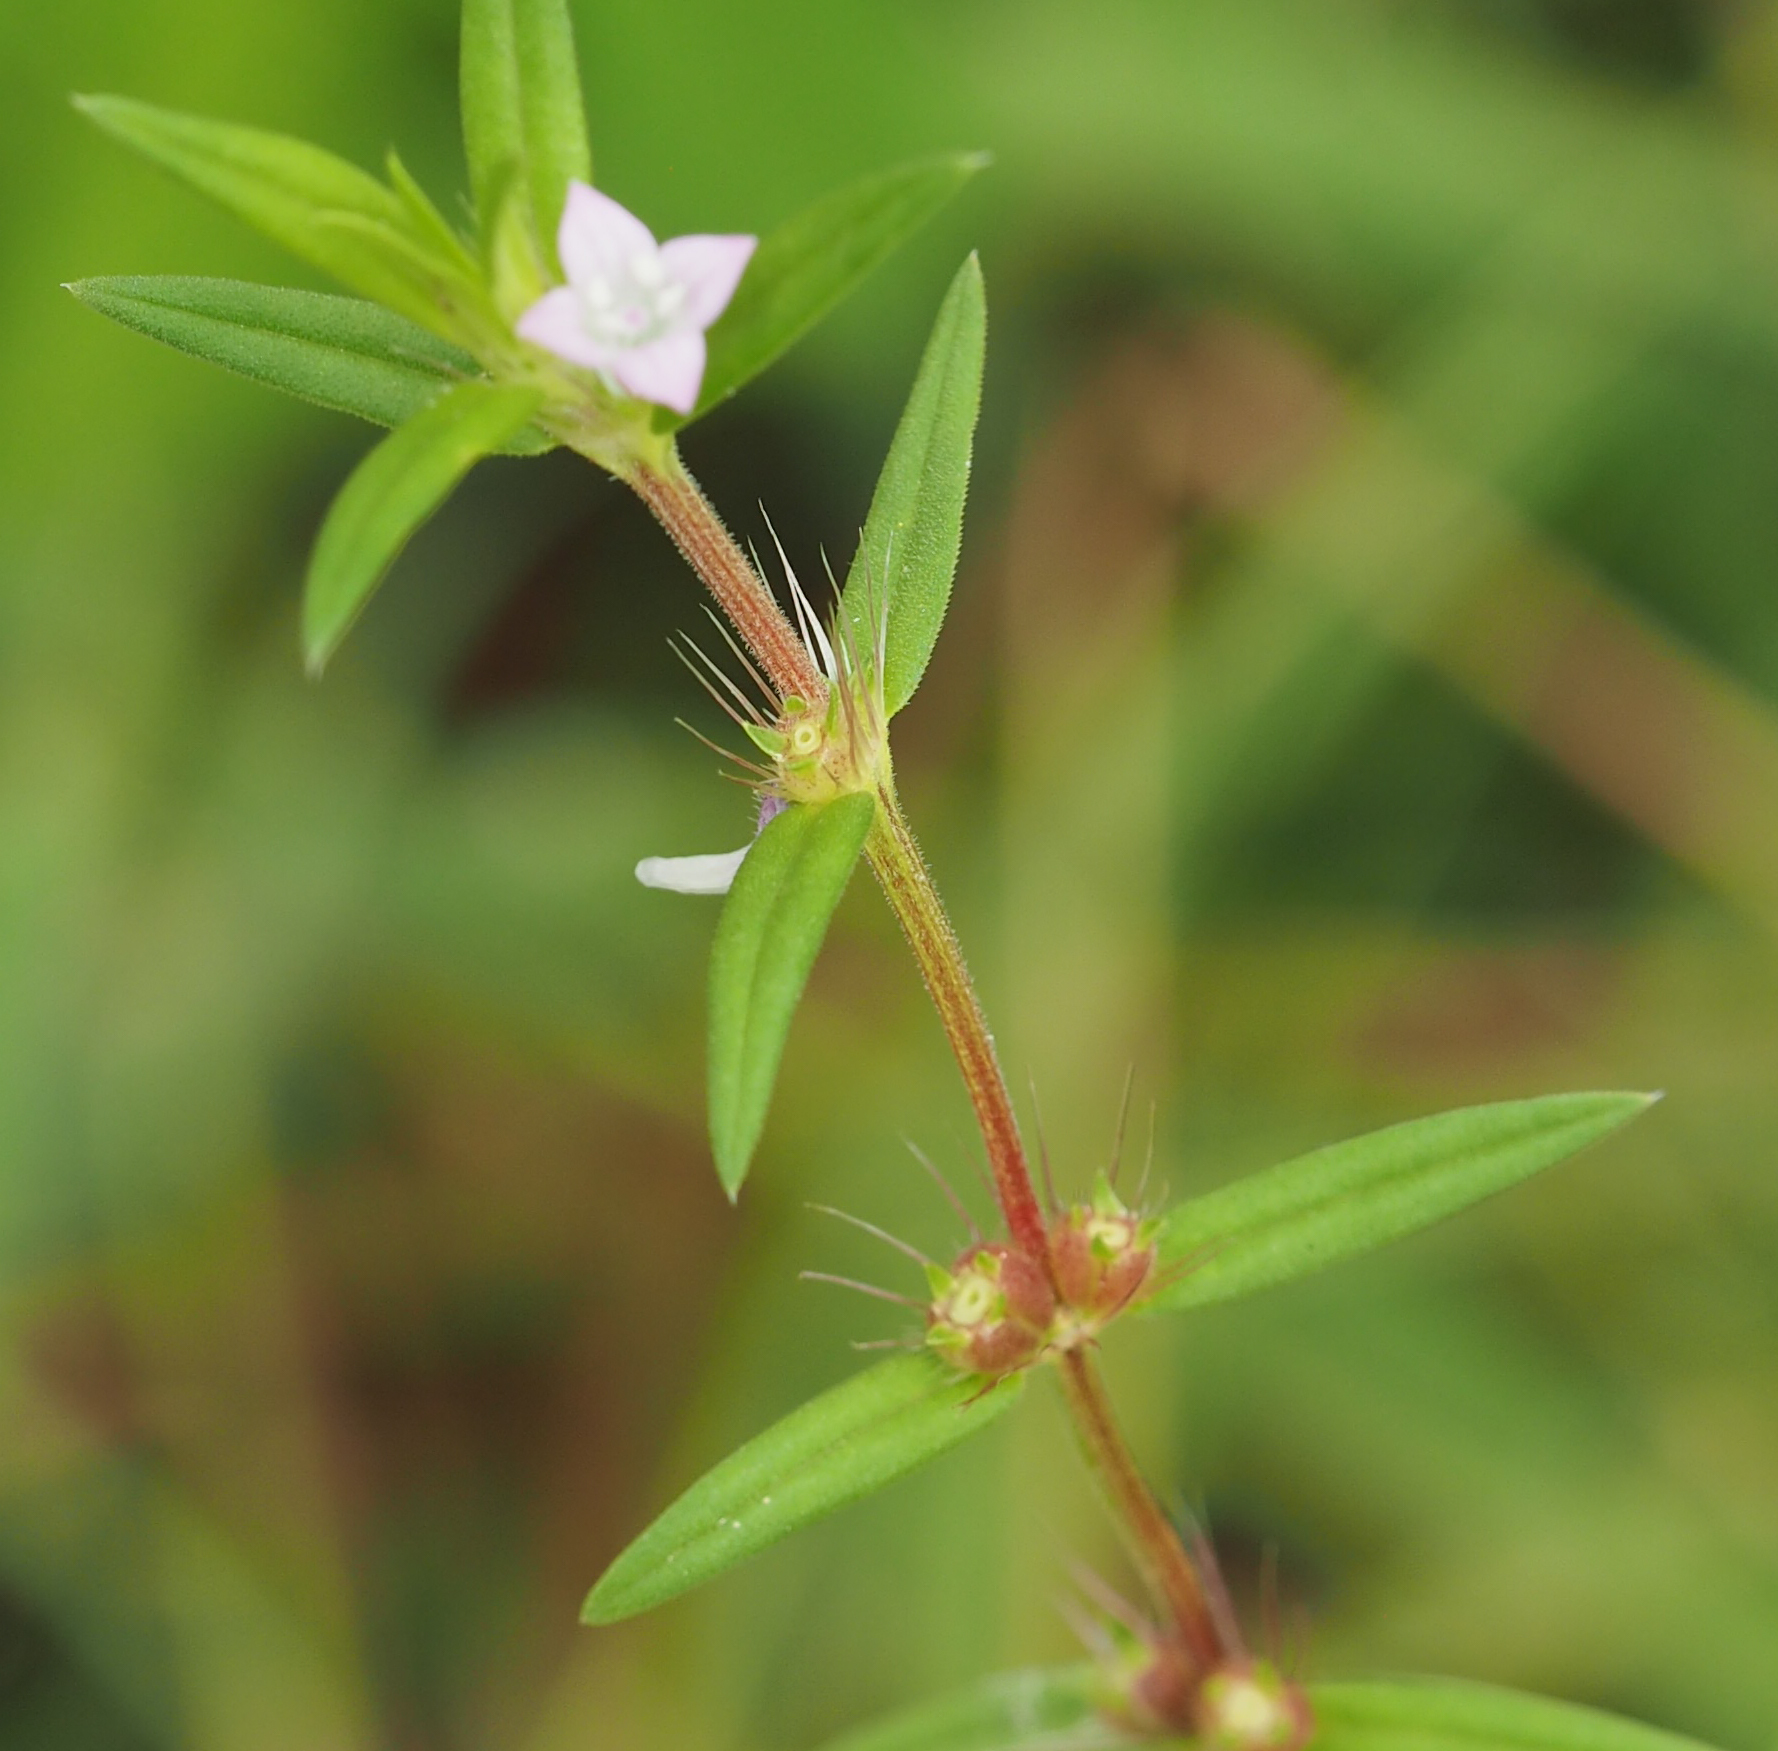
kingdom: Plantae
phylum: Tracheophyta
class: Magnoliopsida
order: Gentianales
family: Rubiaceae
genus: Hexasepalum
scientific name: Hexasepalum teres
